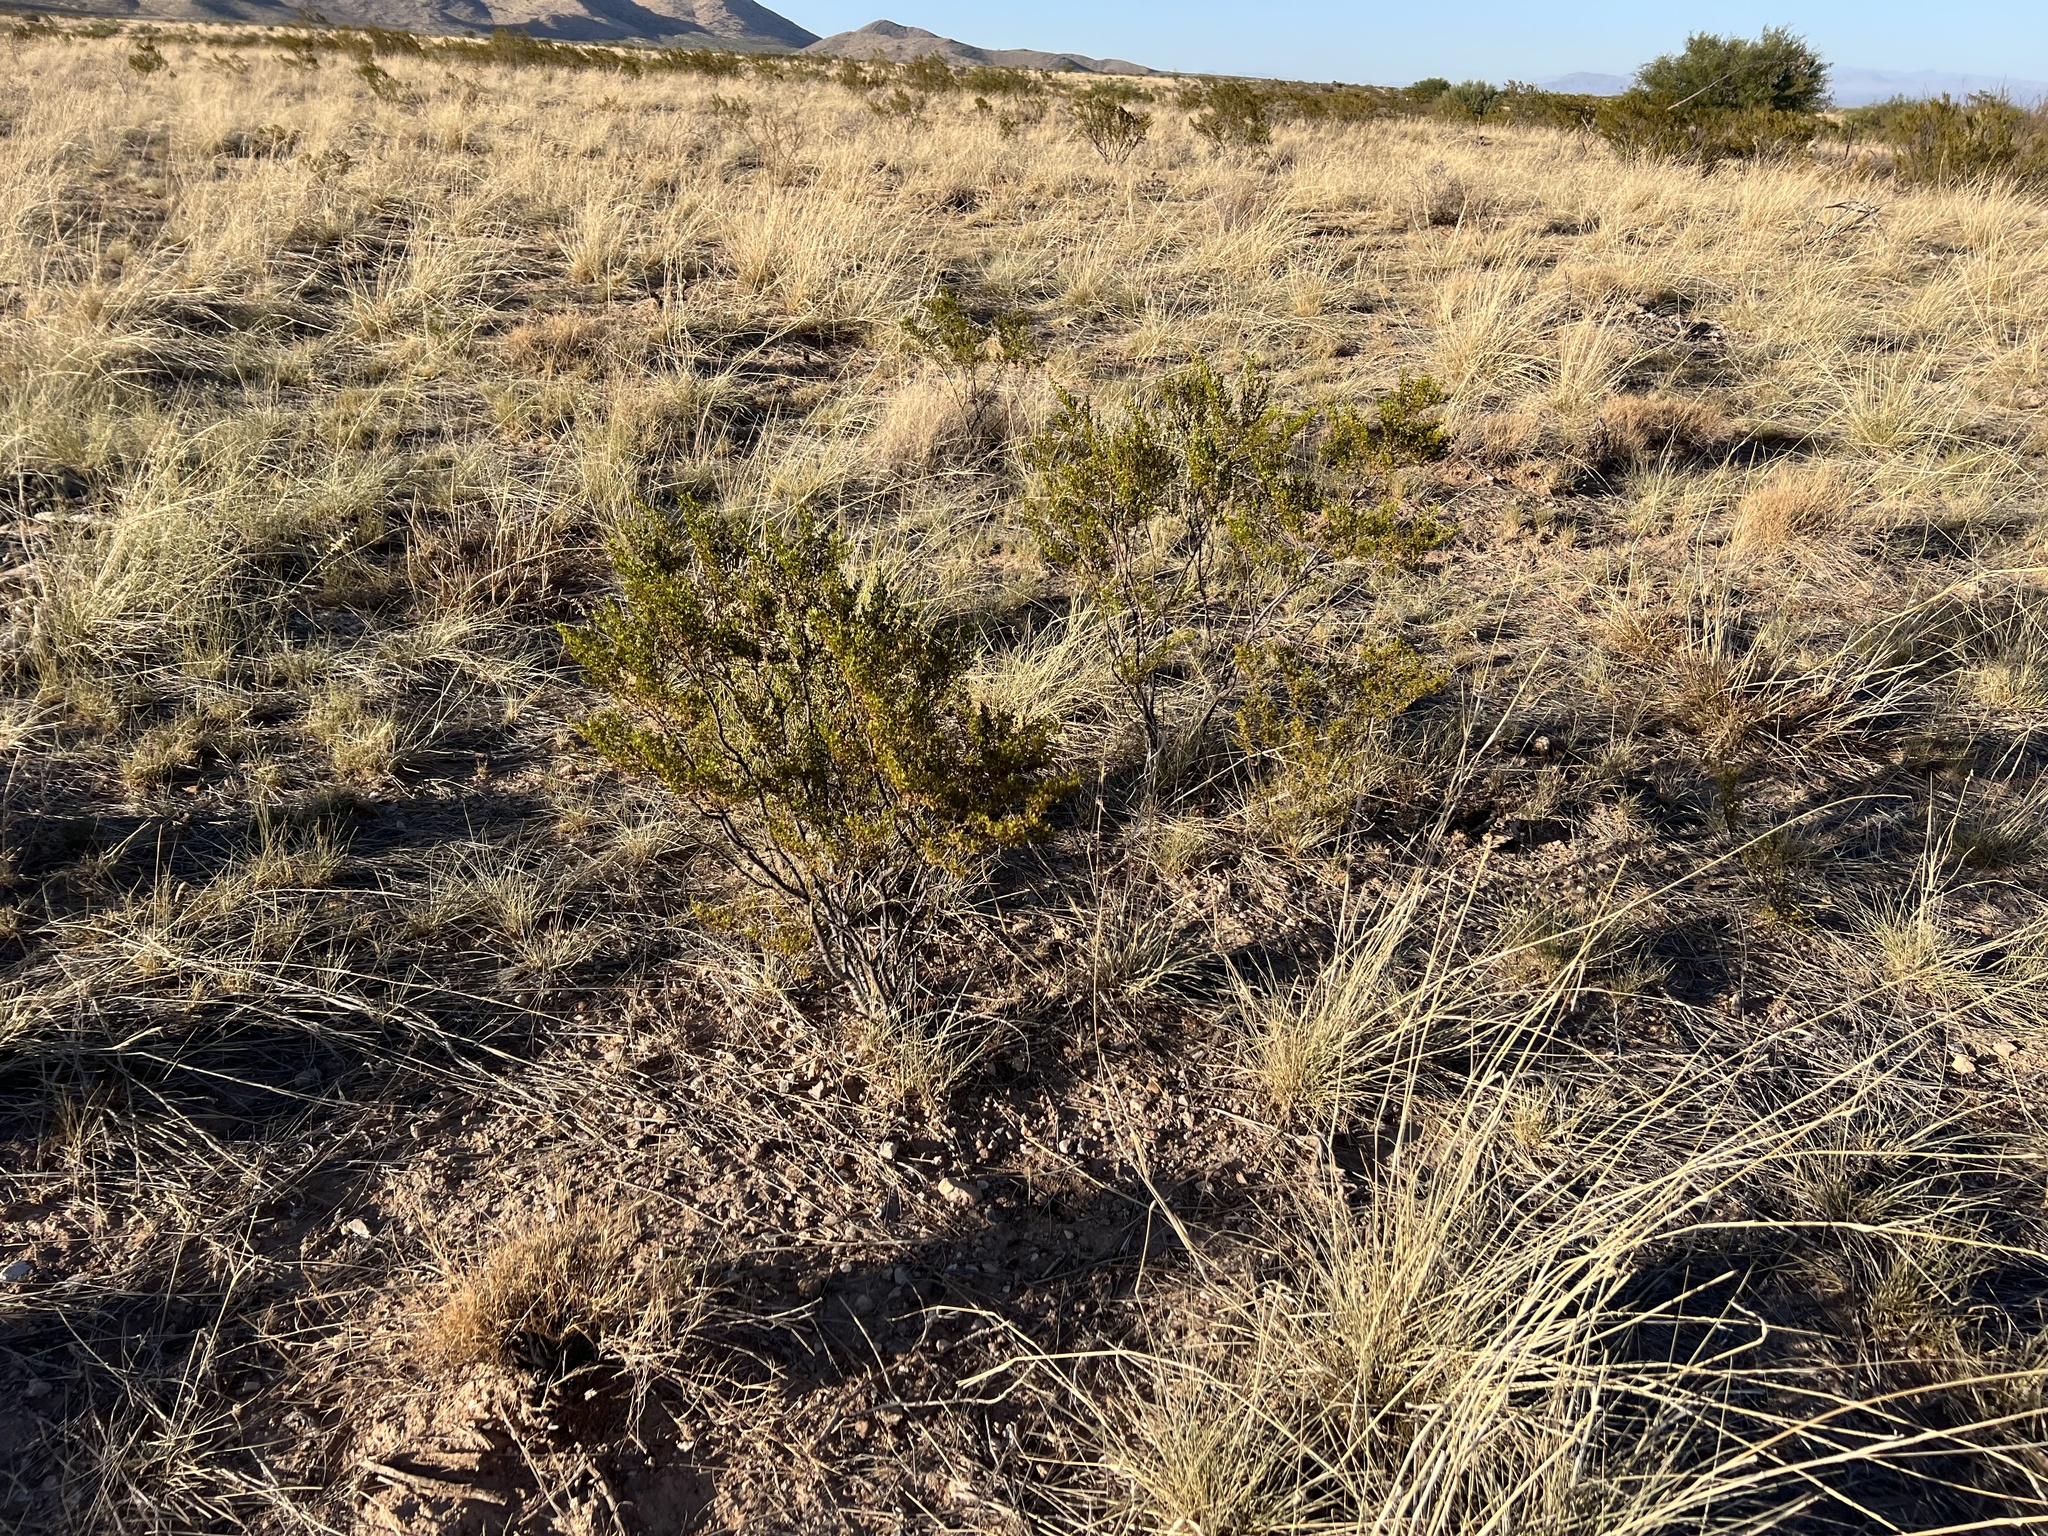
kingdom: Plantae
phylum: Tracheophyta
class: Magnoliopsida
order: Zygophyllales
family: Zygophyllaceae
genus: Larrea
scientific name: Larrea tridentata
